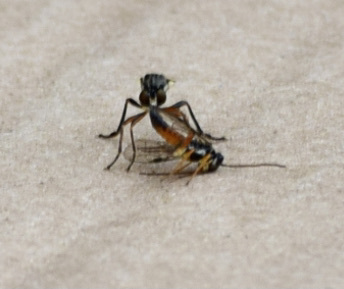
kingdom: Animalia
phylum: Arthropoda
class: Insecta
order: Diptera
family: Asilidae
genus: Dioctria
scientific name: Dioctria hyalipennis
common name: Stripe-legged robberfly
